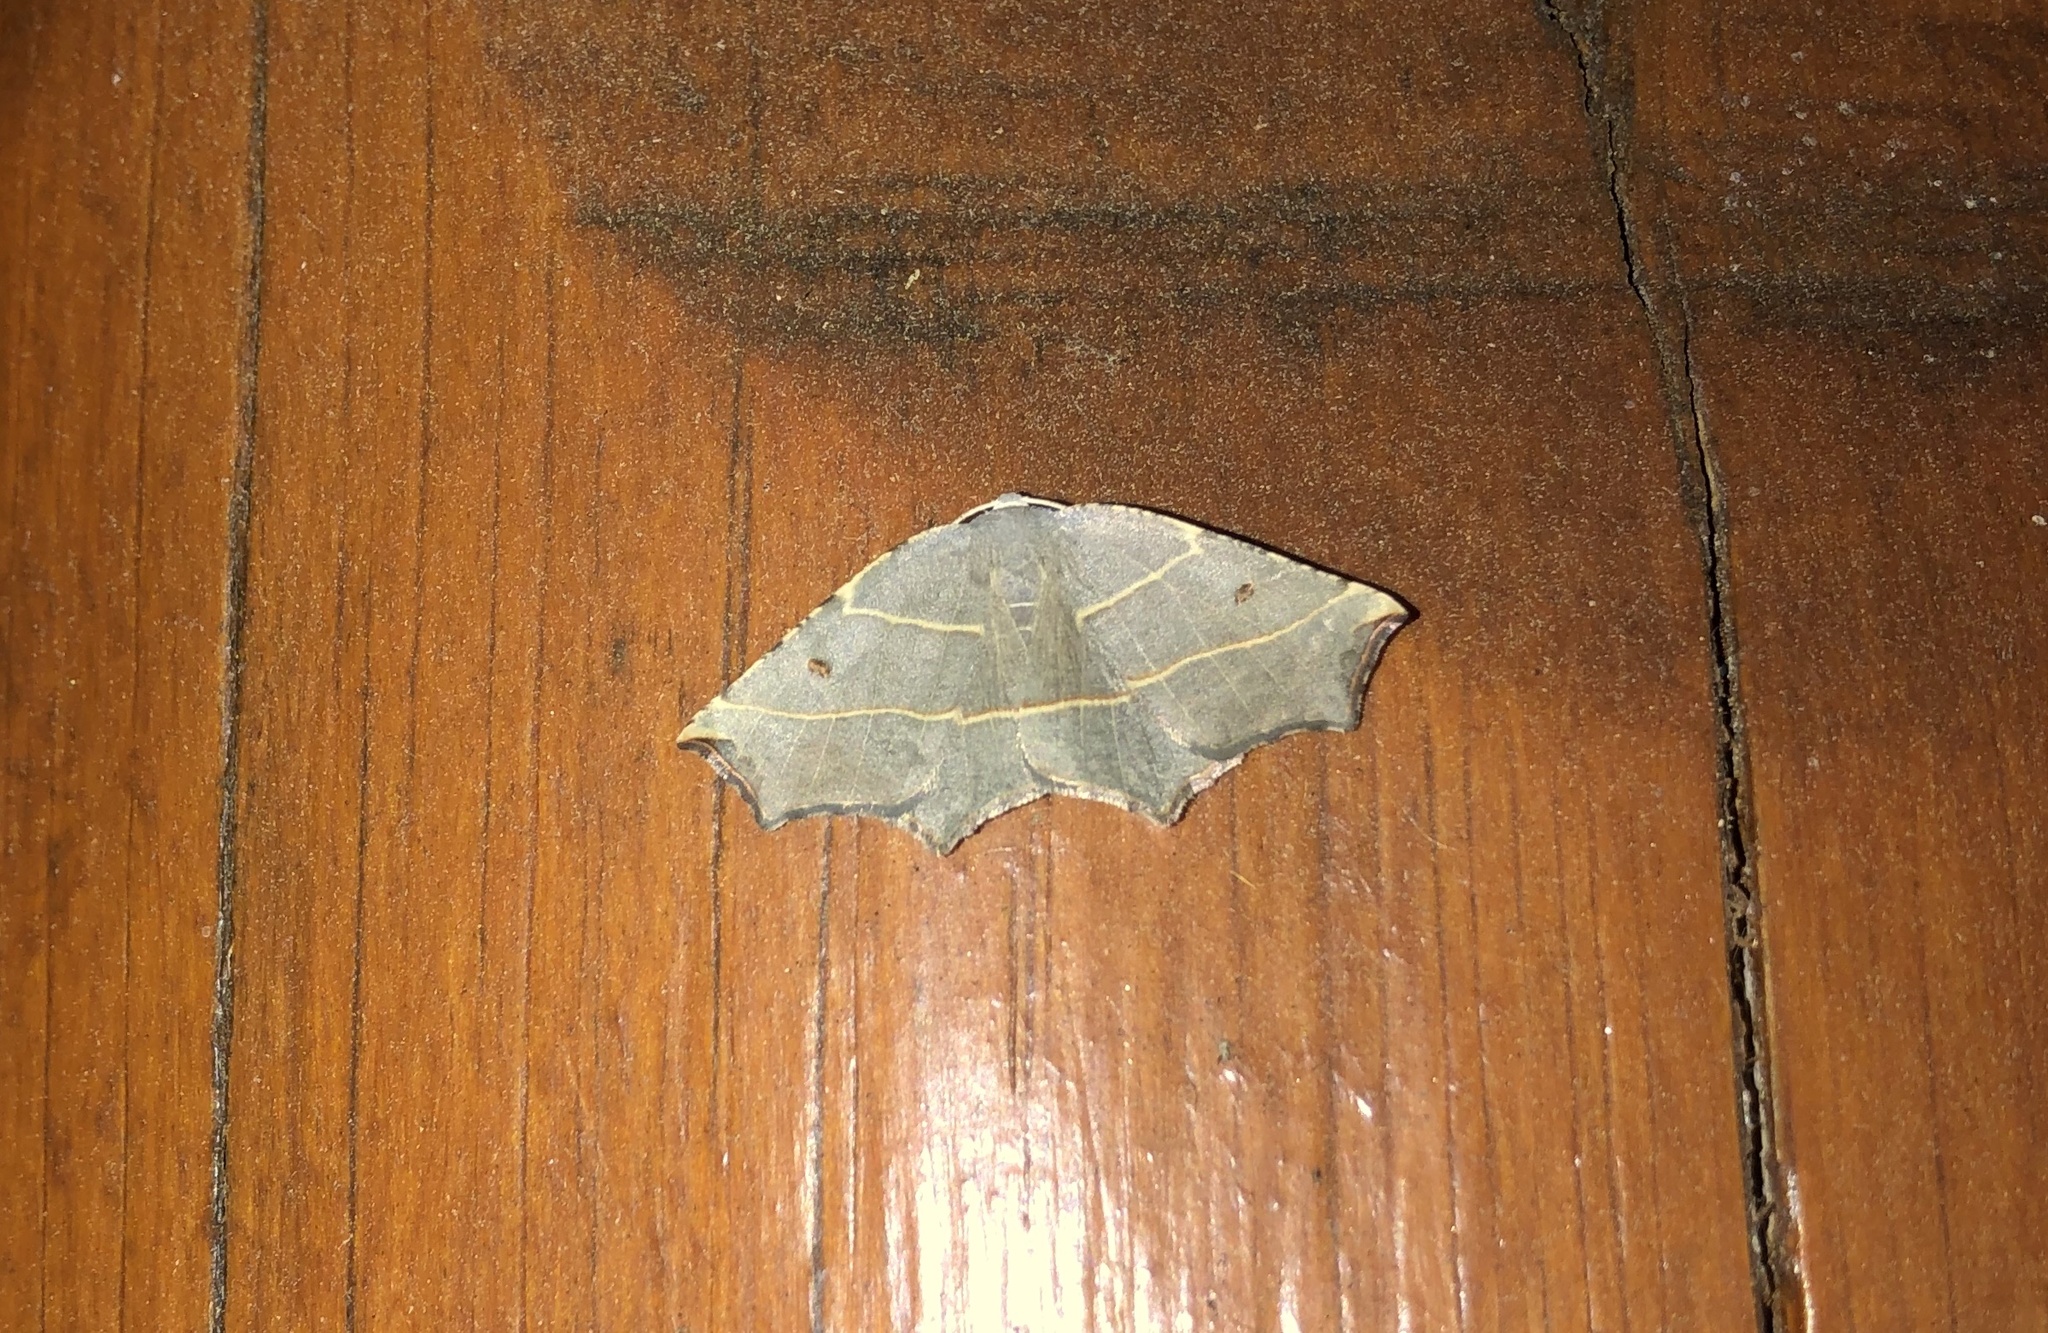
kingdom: Animalia
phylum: Arthropoda
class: Insecta
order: Lepidoptera
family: Geometridae
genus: Metanema
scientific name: Metanema inatomaria
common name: Pale metanema
